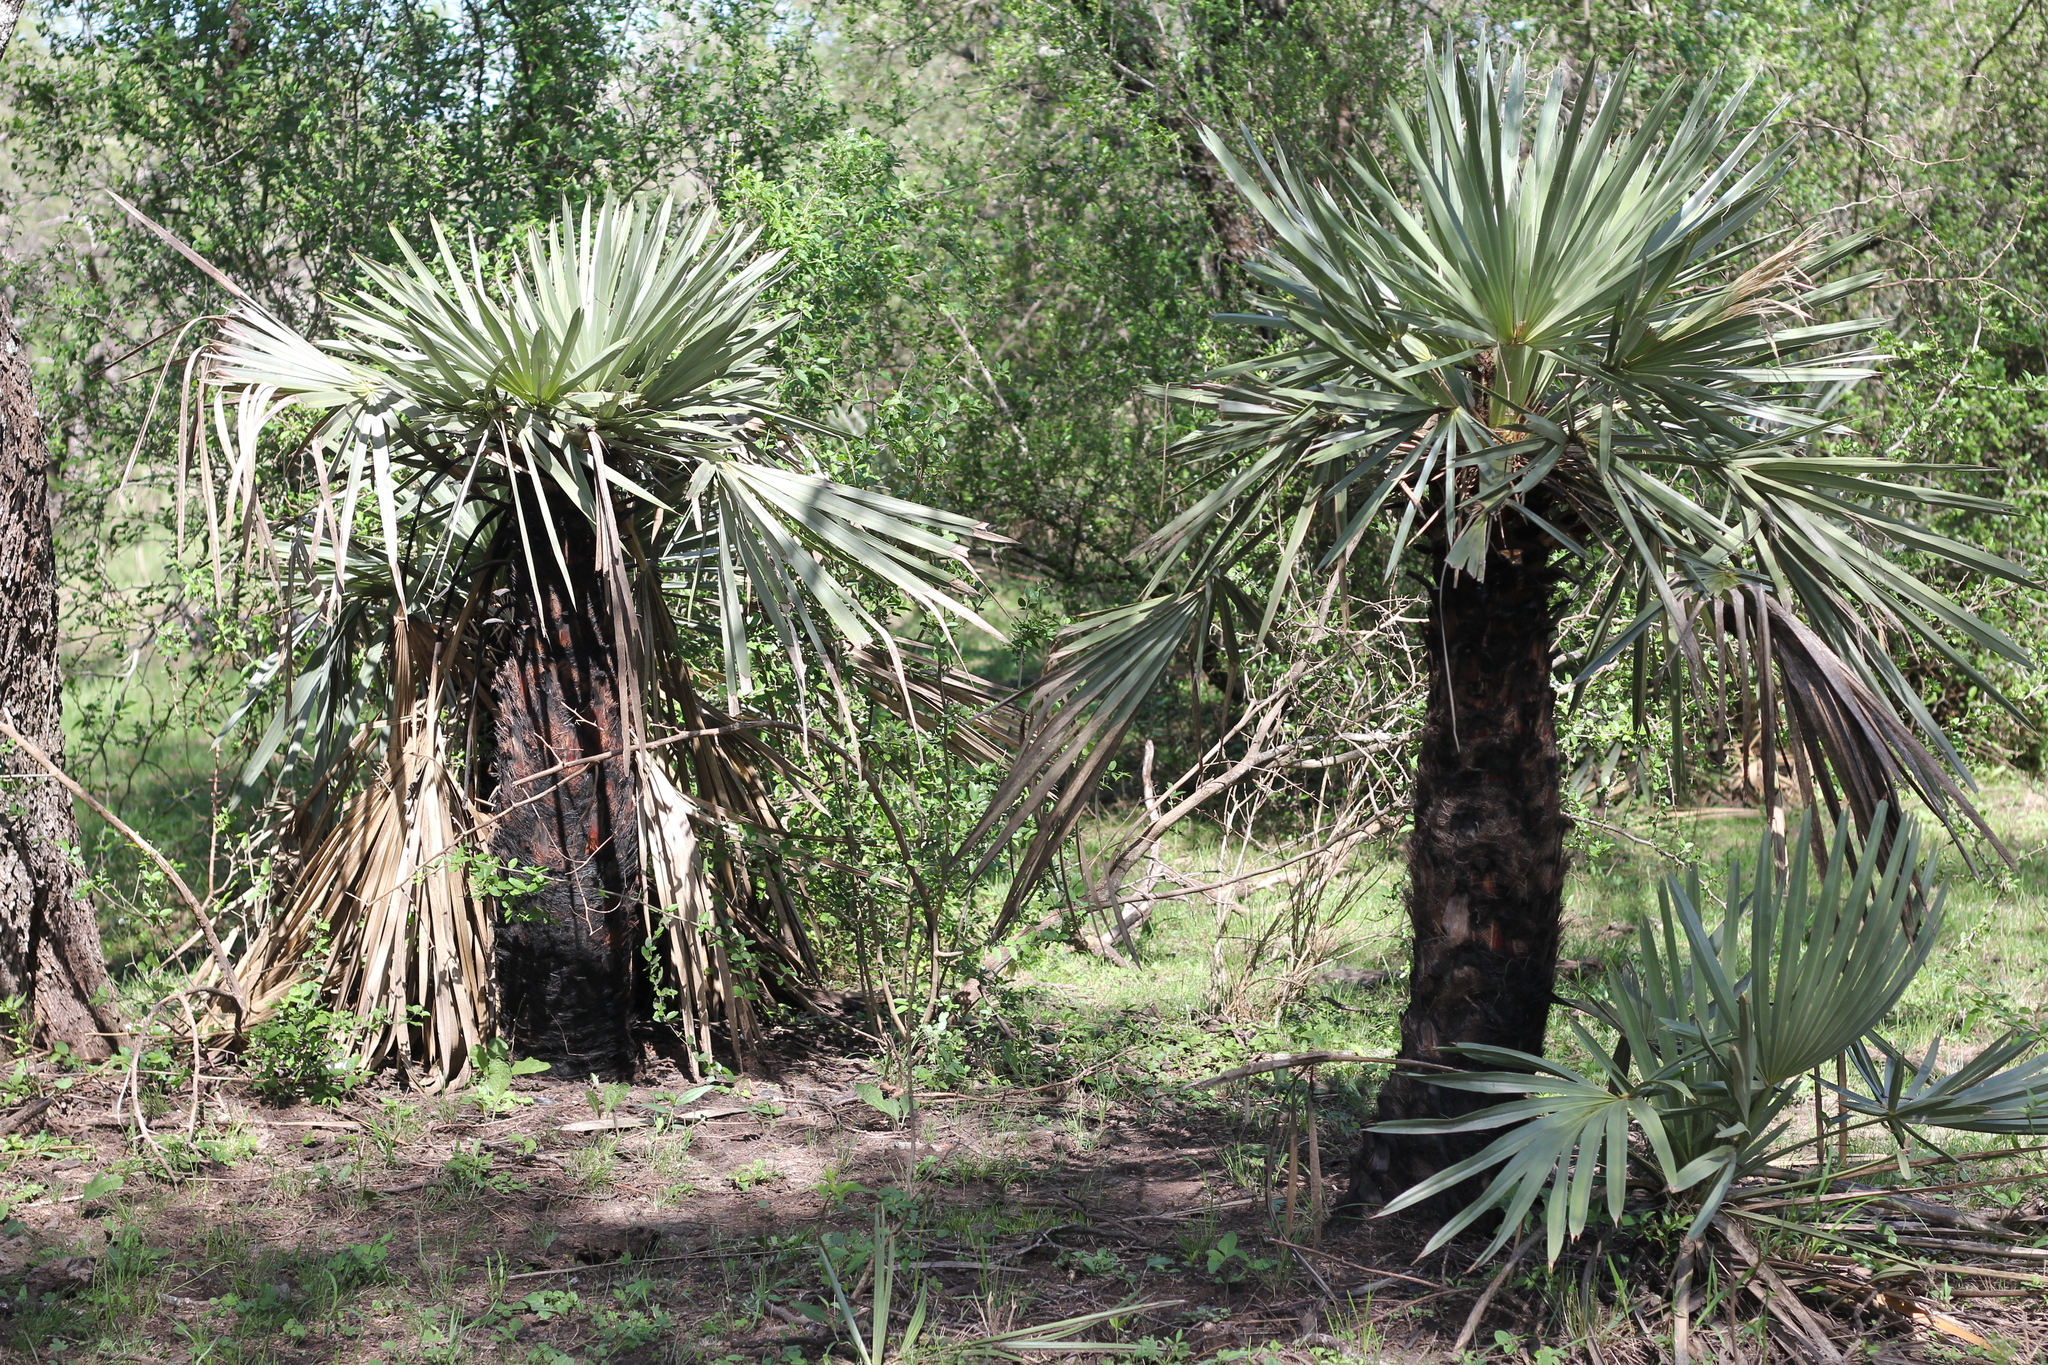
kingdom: Plantae
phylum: Tracheophyta
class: Liliopsida
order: Arecales
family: Arecaceae
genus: Trithrinax
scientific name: Trithrinax campestris
